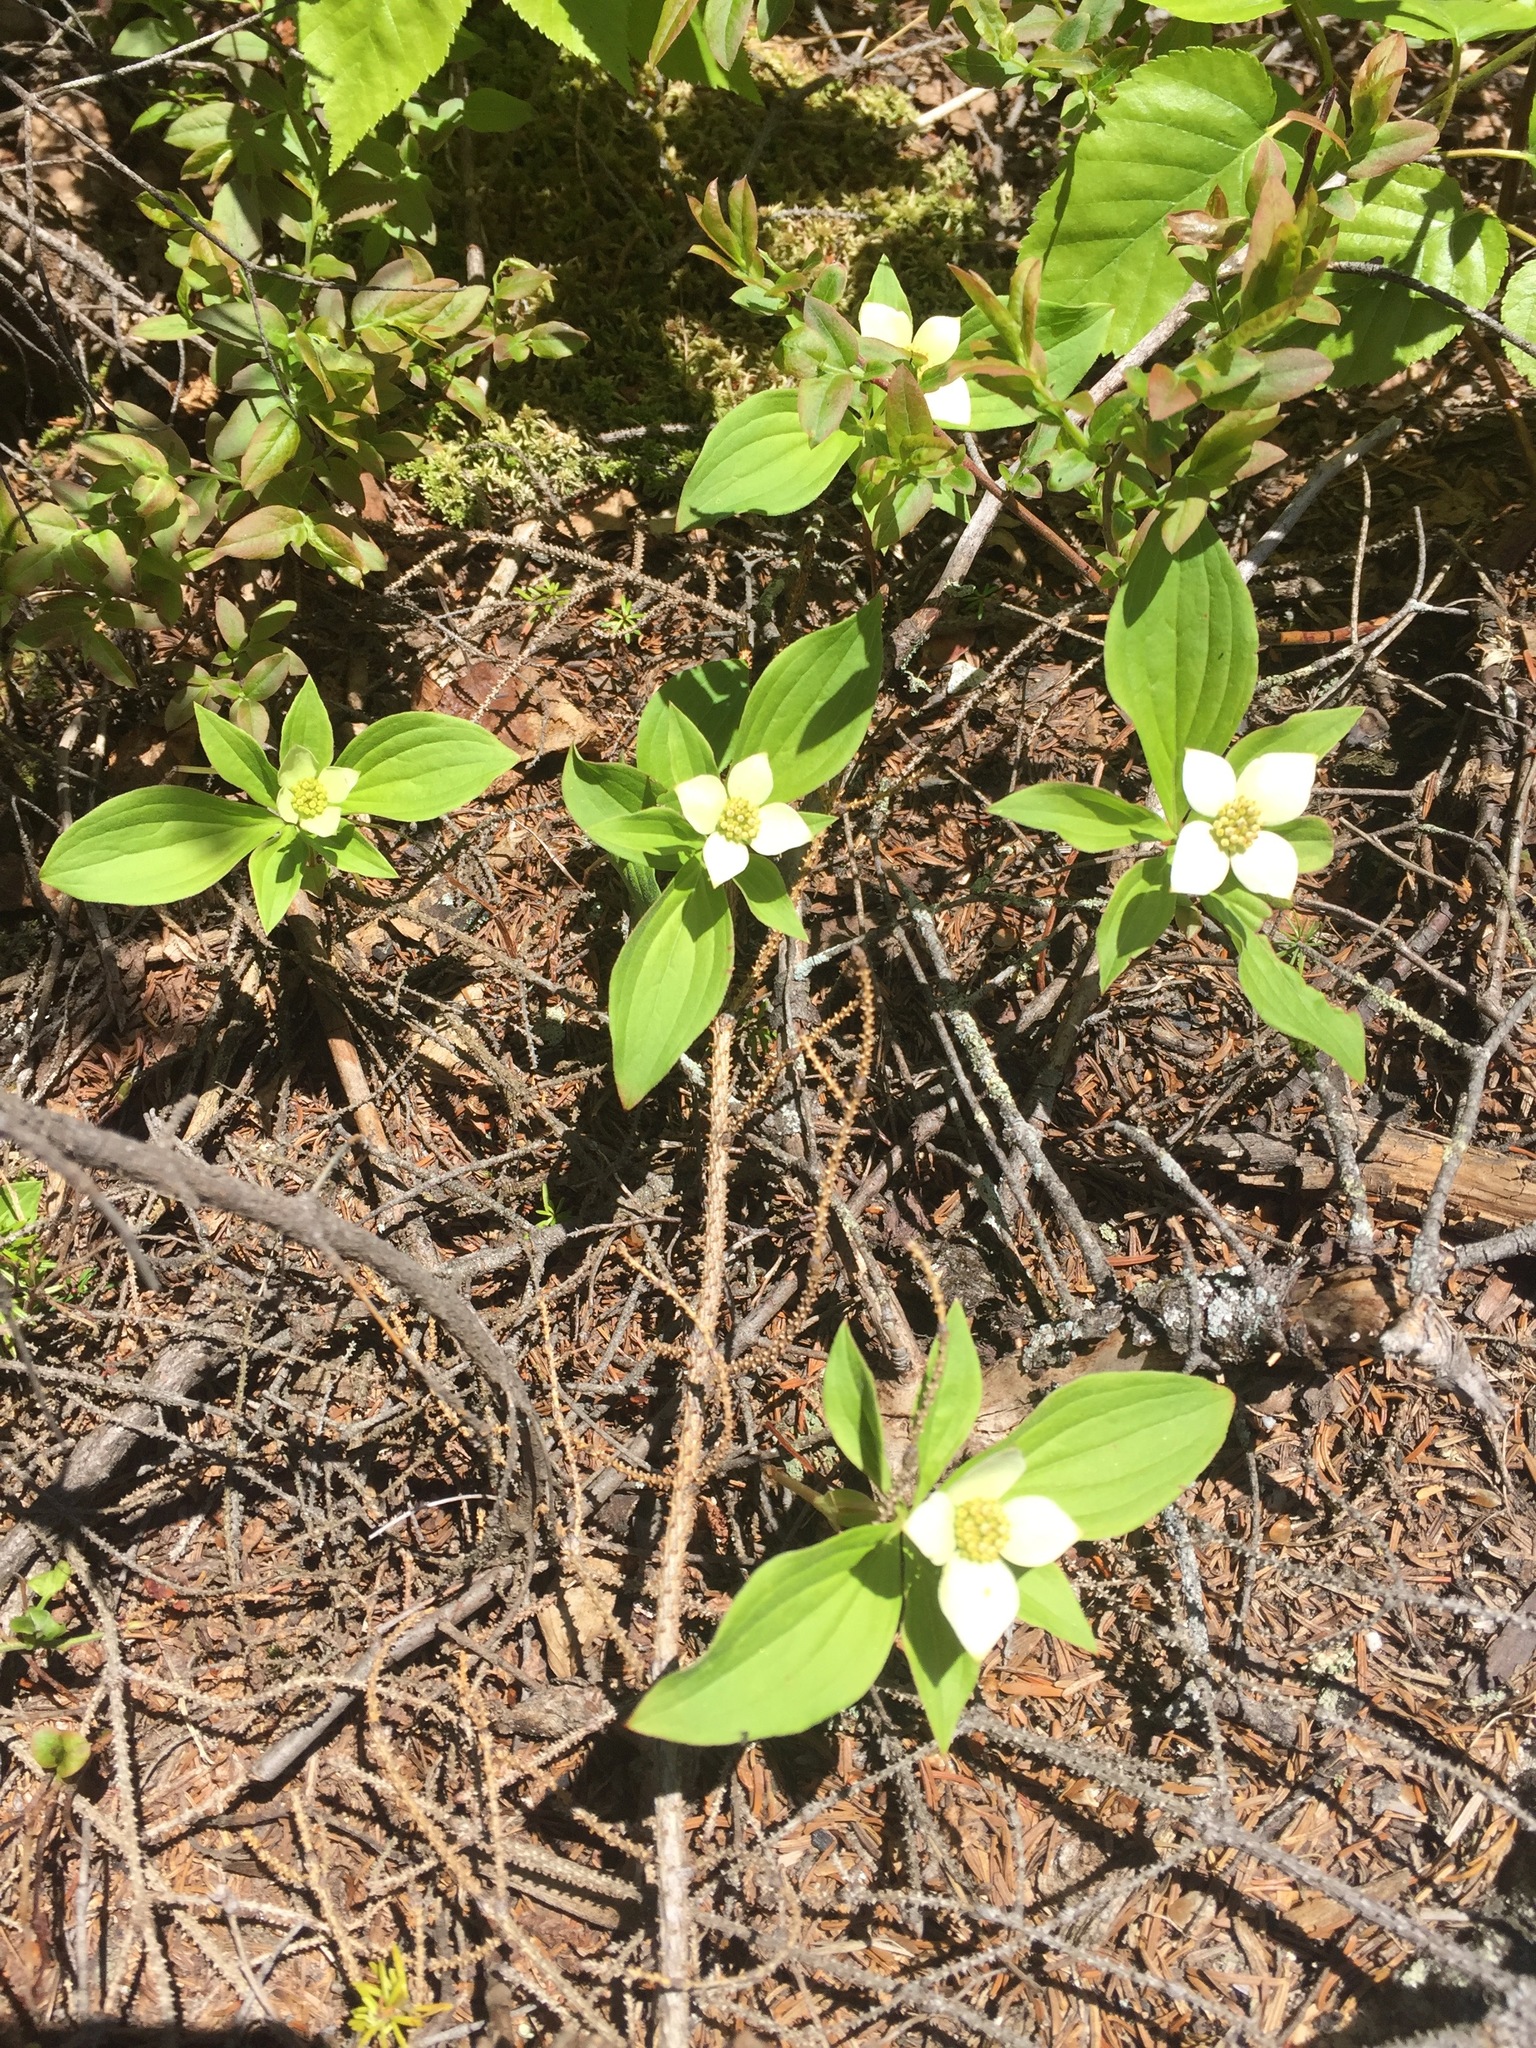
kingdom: Plantae
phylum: Tracheophyta
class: Magnoliopsida
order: Cornales
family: Cornaceae
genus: Cornus
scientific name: Cornus canadensis
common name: Creeping dogwood
